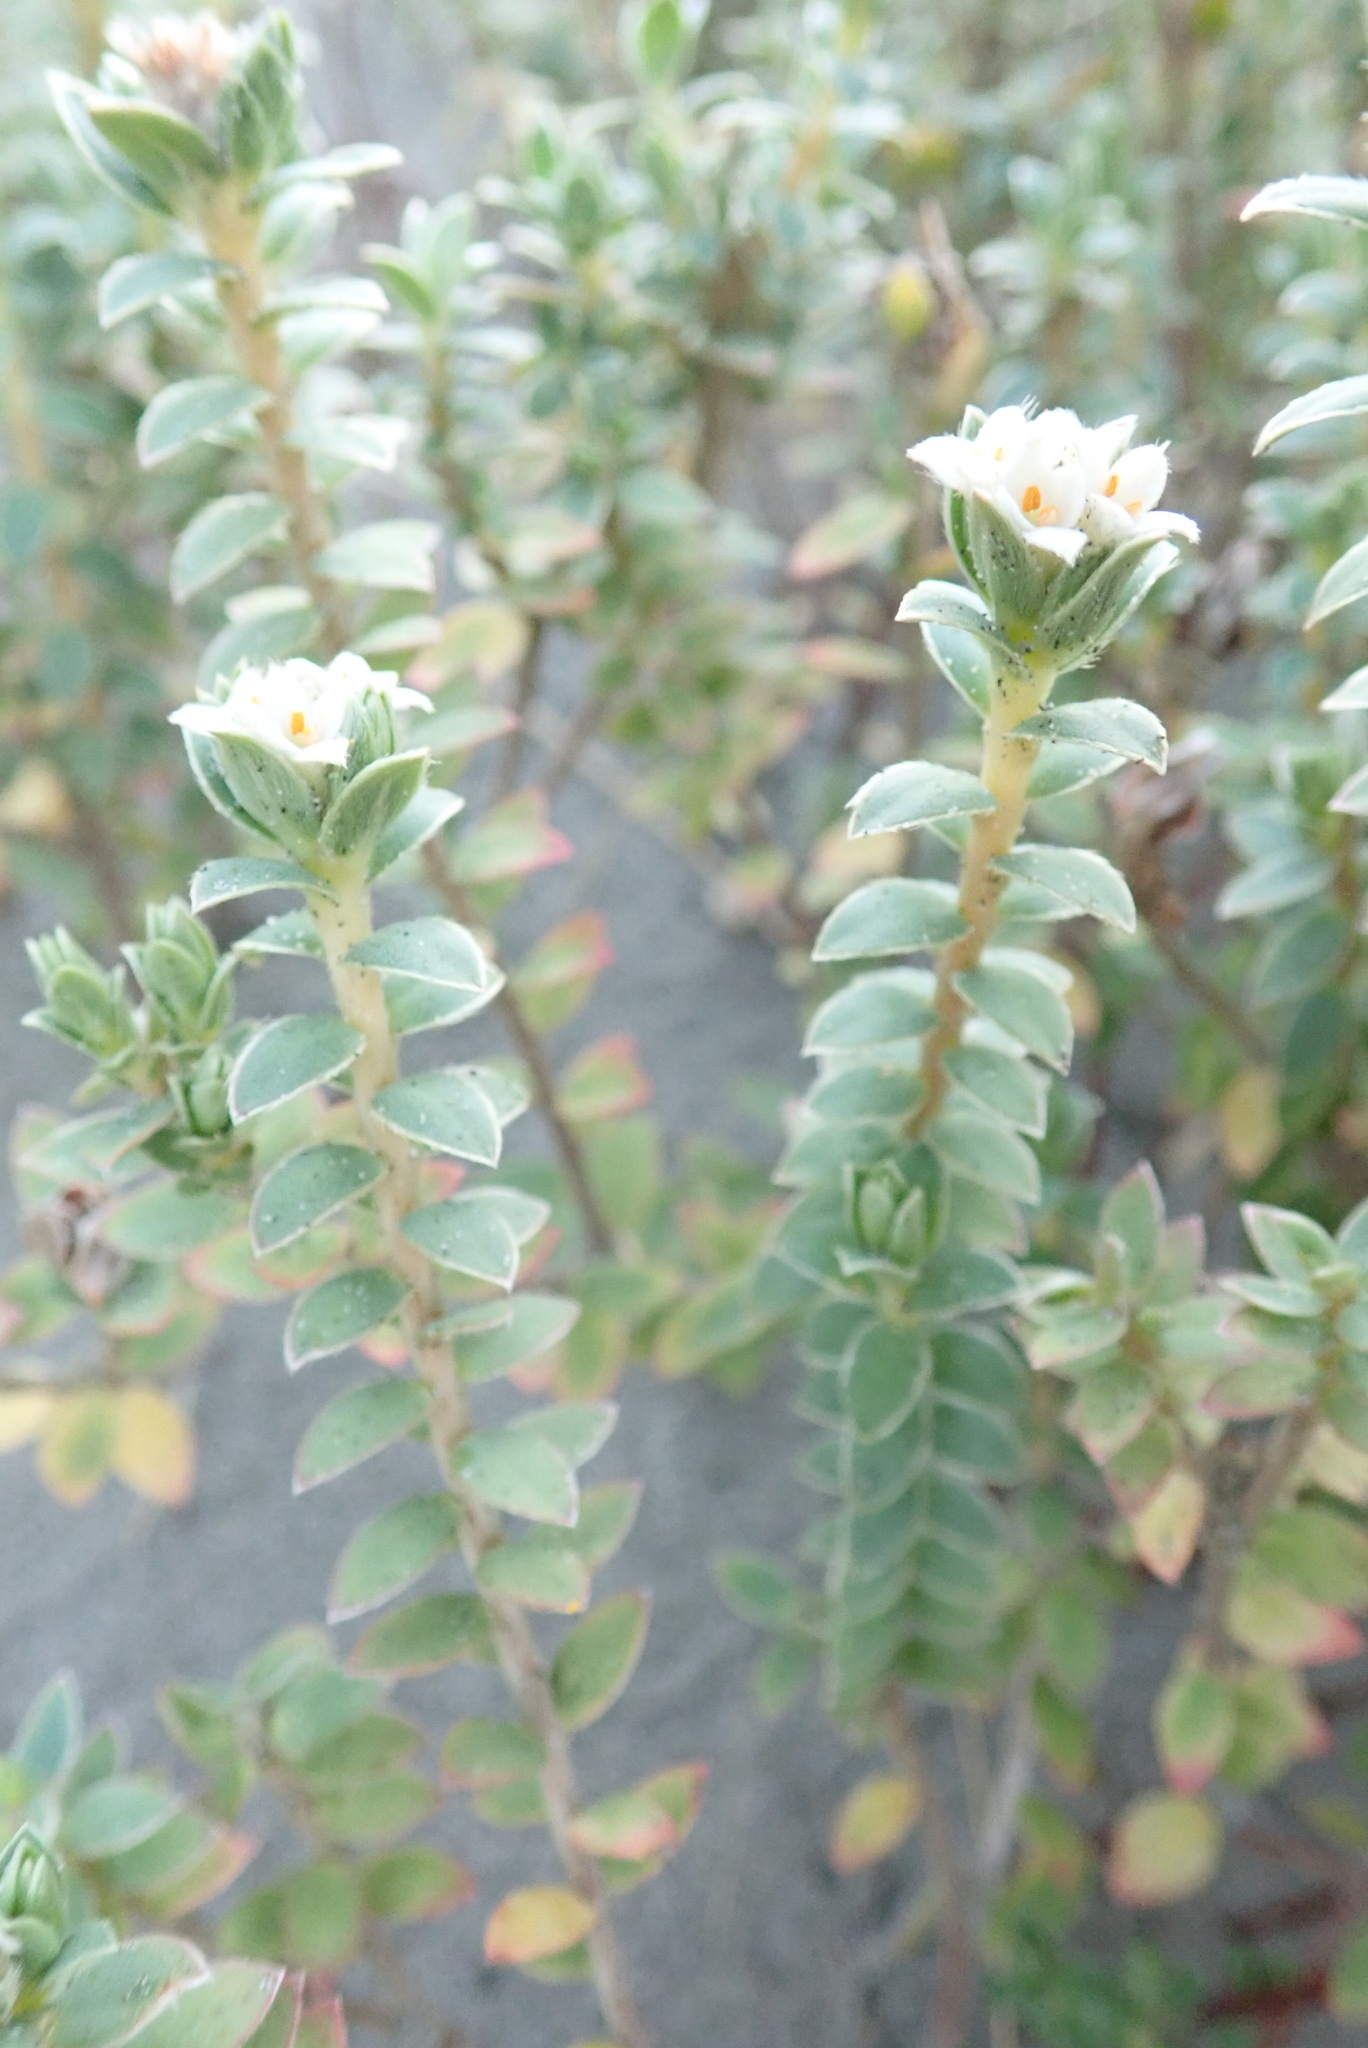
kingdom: Plantae
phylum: Tracheophyta
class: Magnoliopsida
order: Malvales
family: Thymelaeaceae
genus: Pimelea
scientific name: Pimelea villosa
